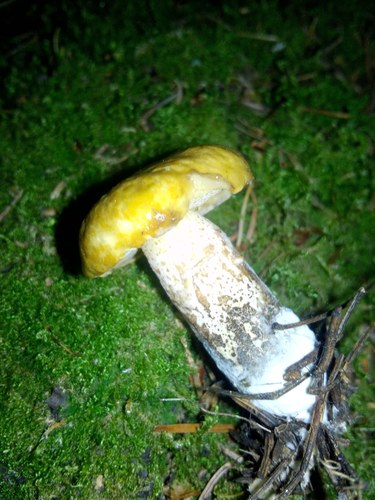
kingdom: Fungi
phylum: Basidiomycota
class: Agaricomycetes
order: Boletales
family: Suillaceae
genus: Suillus
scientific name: Suillus acidus
